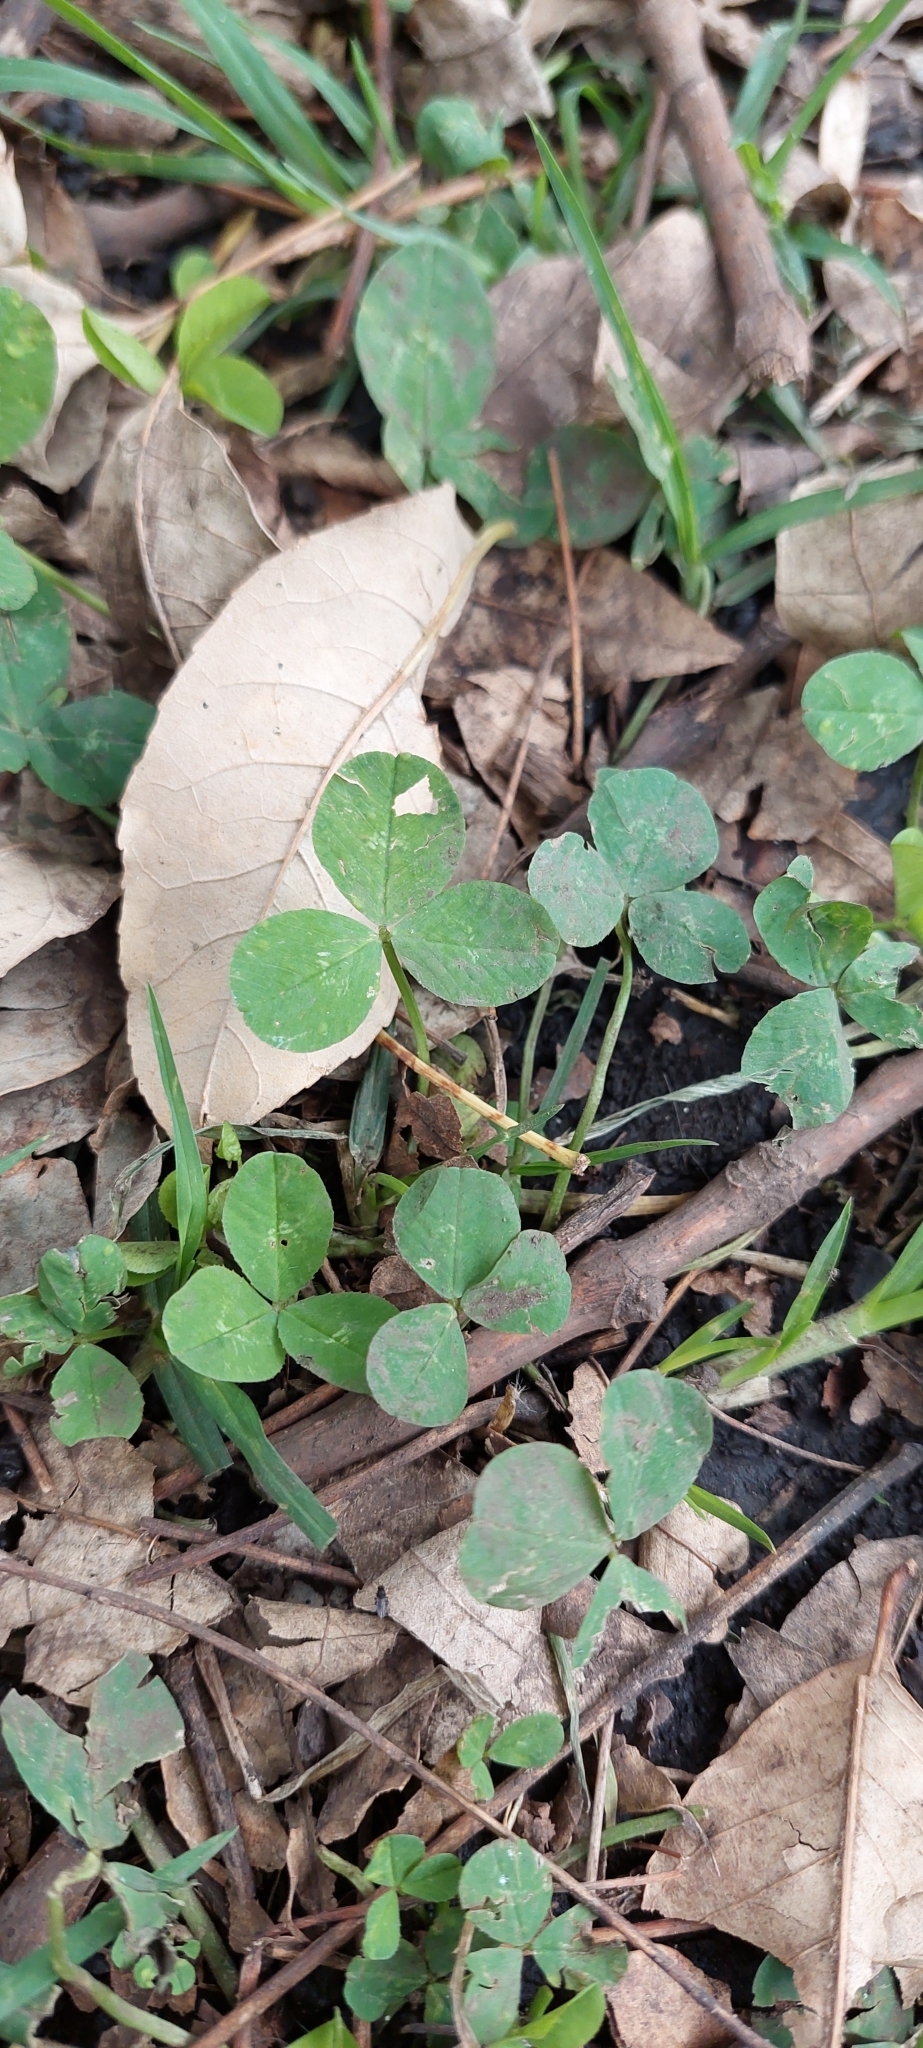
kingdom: Plantae
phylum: Tracheophyta
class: Magnoliopsida
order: Fabales
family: Fabaceae
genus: Trifolium
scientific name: Trifolium repens
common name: White clover
